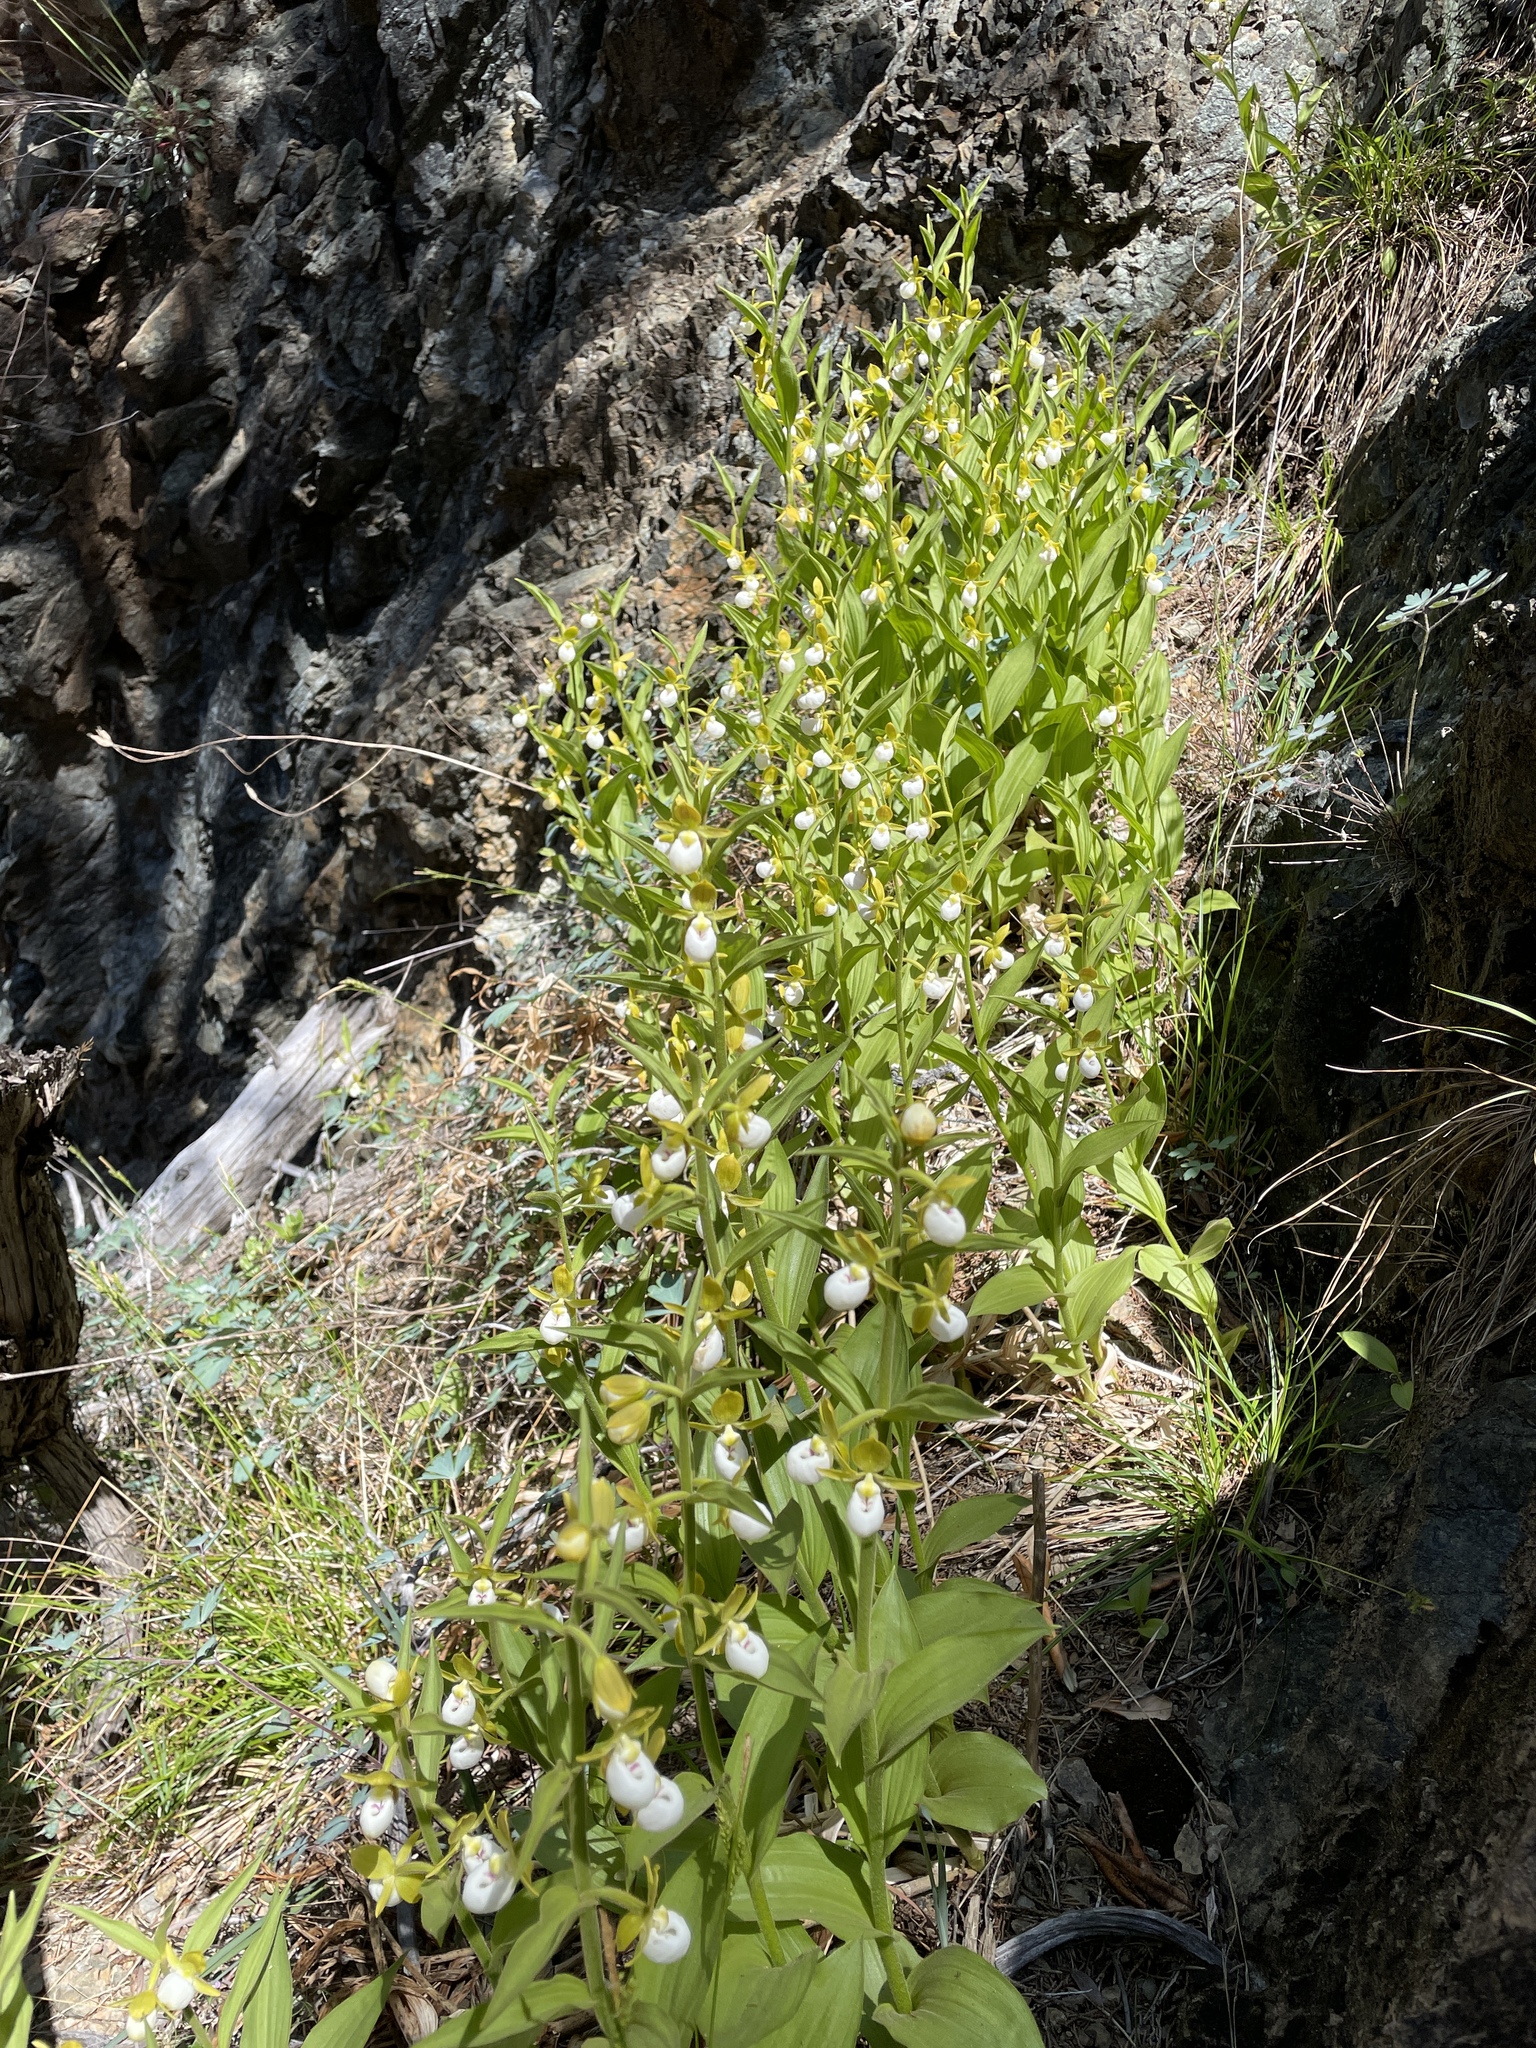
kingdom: Plantae
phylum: Tracheophyta
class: Liliopsida
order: Asparagales
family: Orchidaceae
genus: Cypripedium
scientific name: Cypripedium californicum
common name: California lady's slipper
